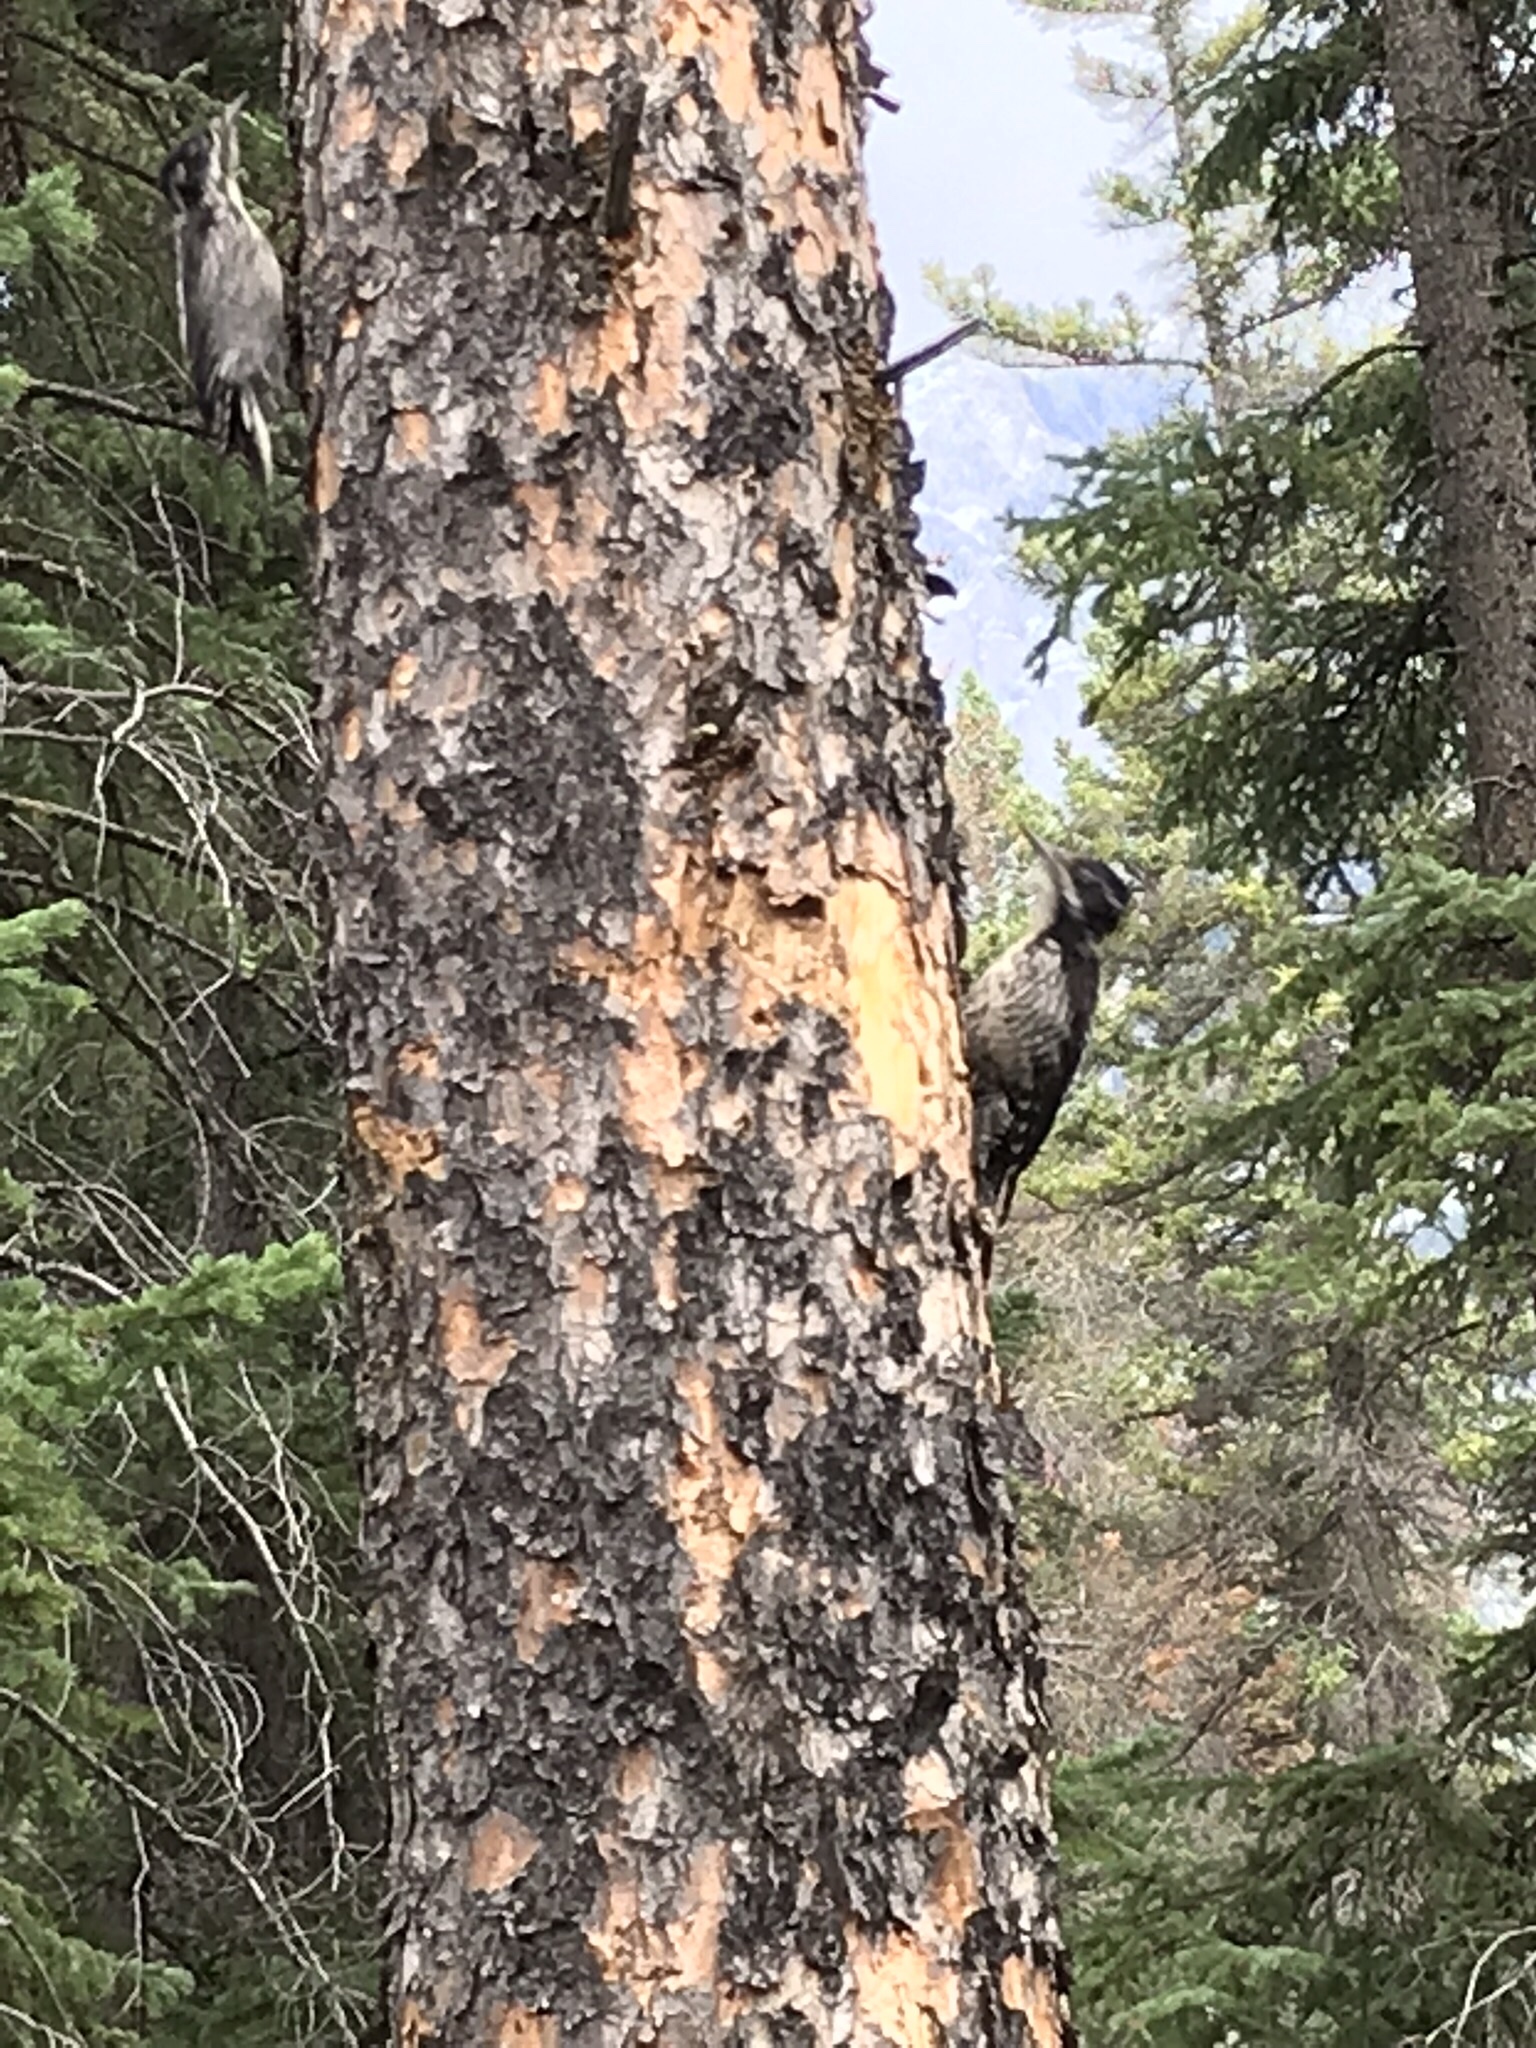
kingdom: Animalia
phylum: Chordata
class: Aves
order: Piciformes
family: Picidae
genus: Picoides
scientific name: Picoides dorsalis
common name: American three-toed woodpecker
